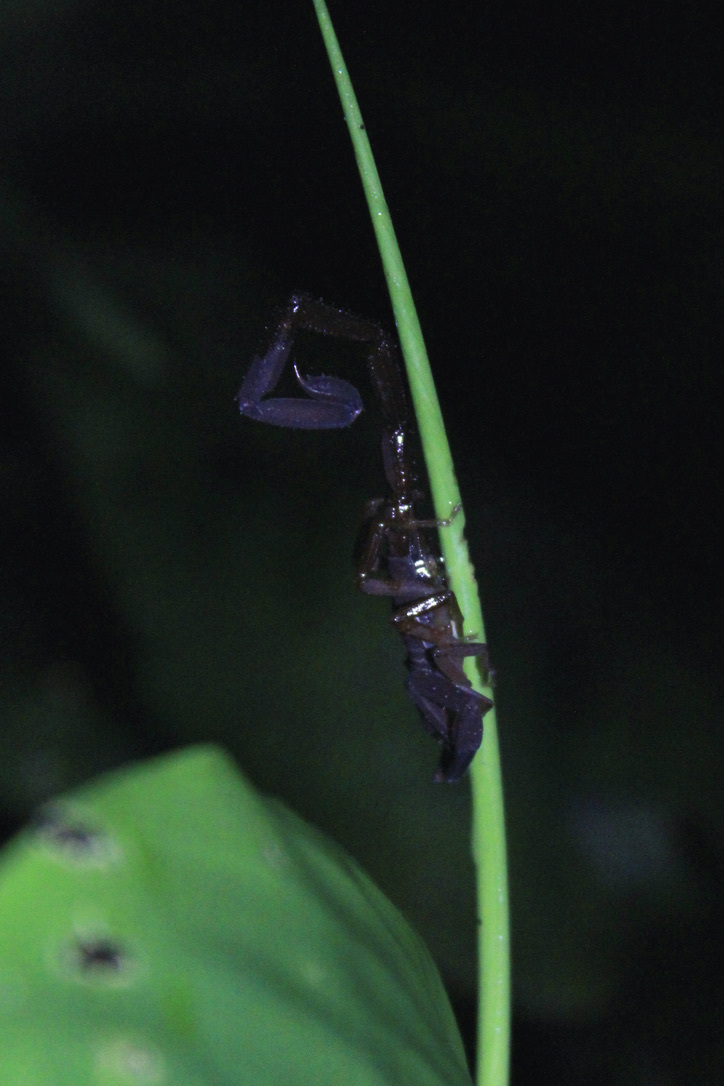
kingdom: Animalia
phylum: Arthropoda
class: Arachnida
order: Scorpiones
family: Buthidae
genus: Tityus
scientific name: Tityus trinitatis
